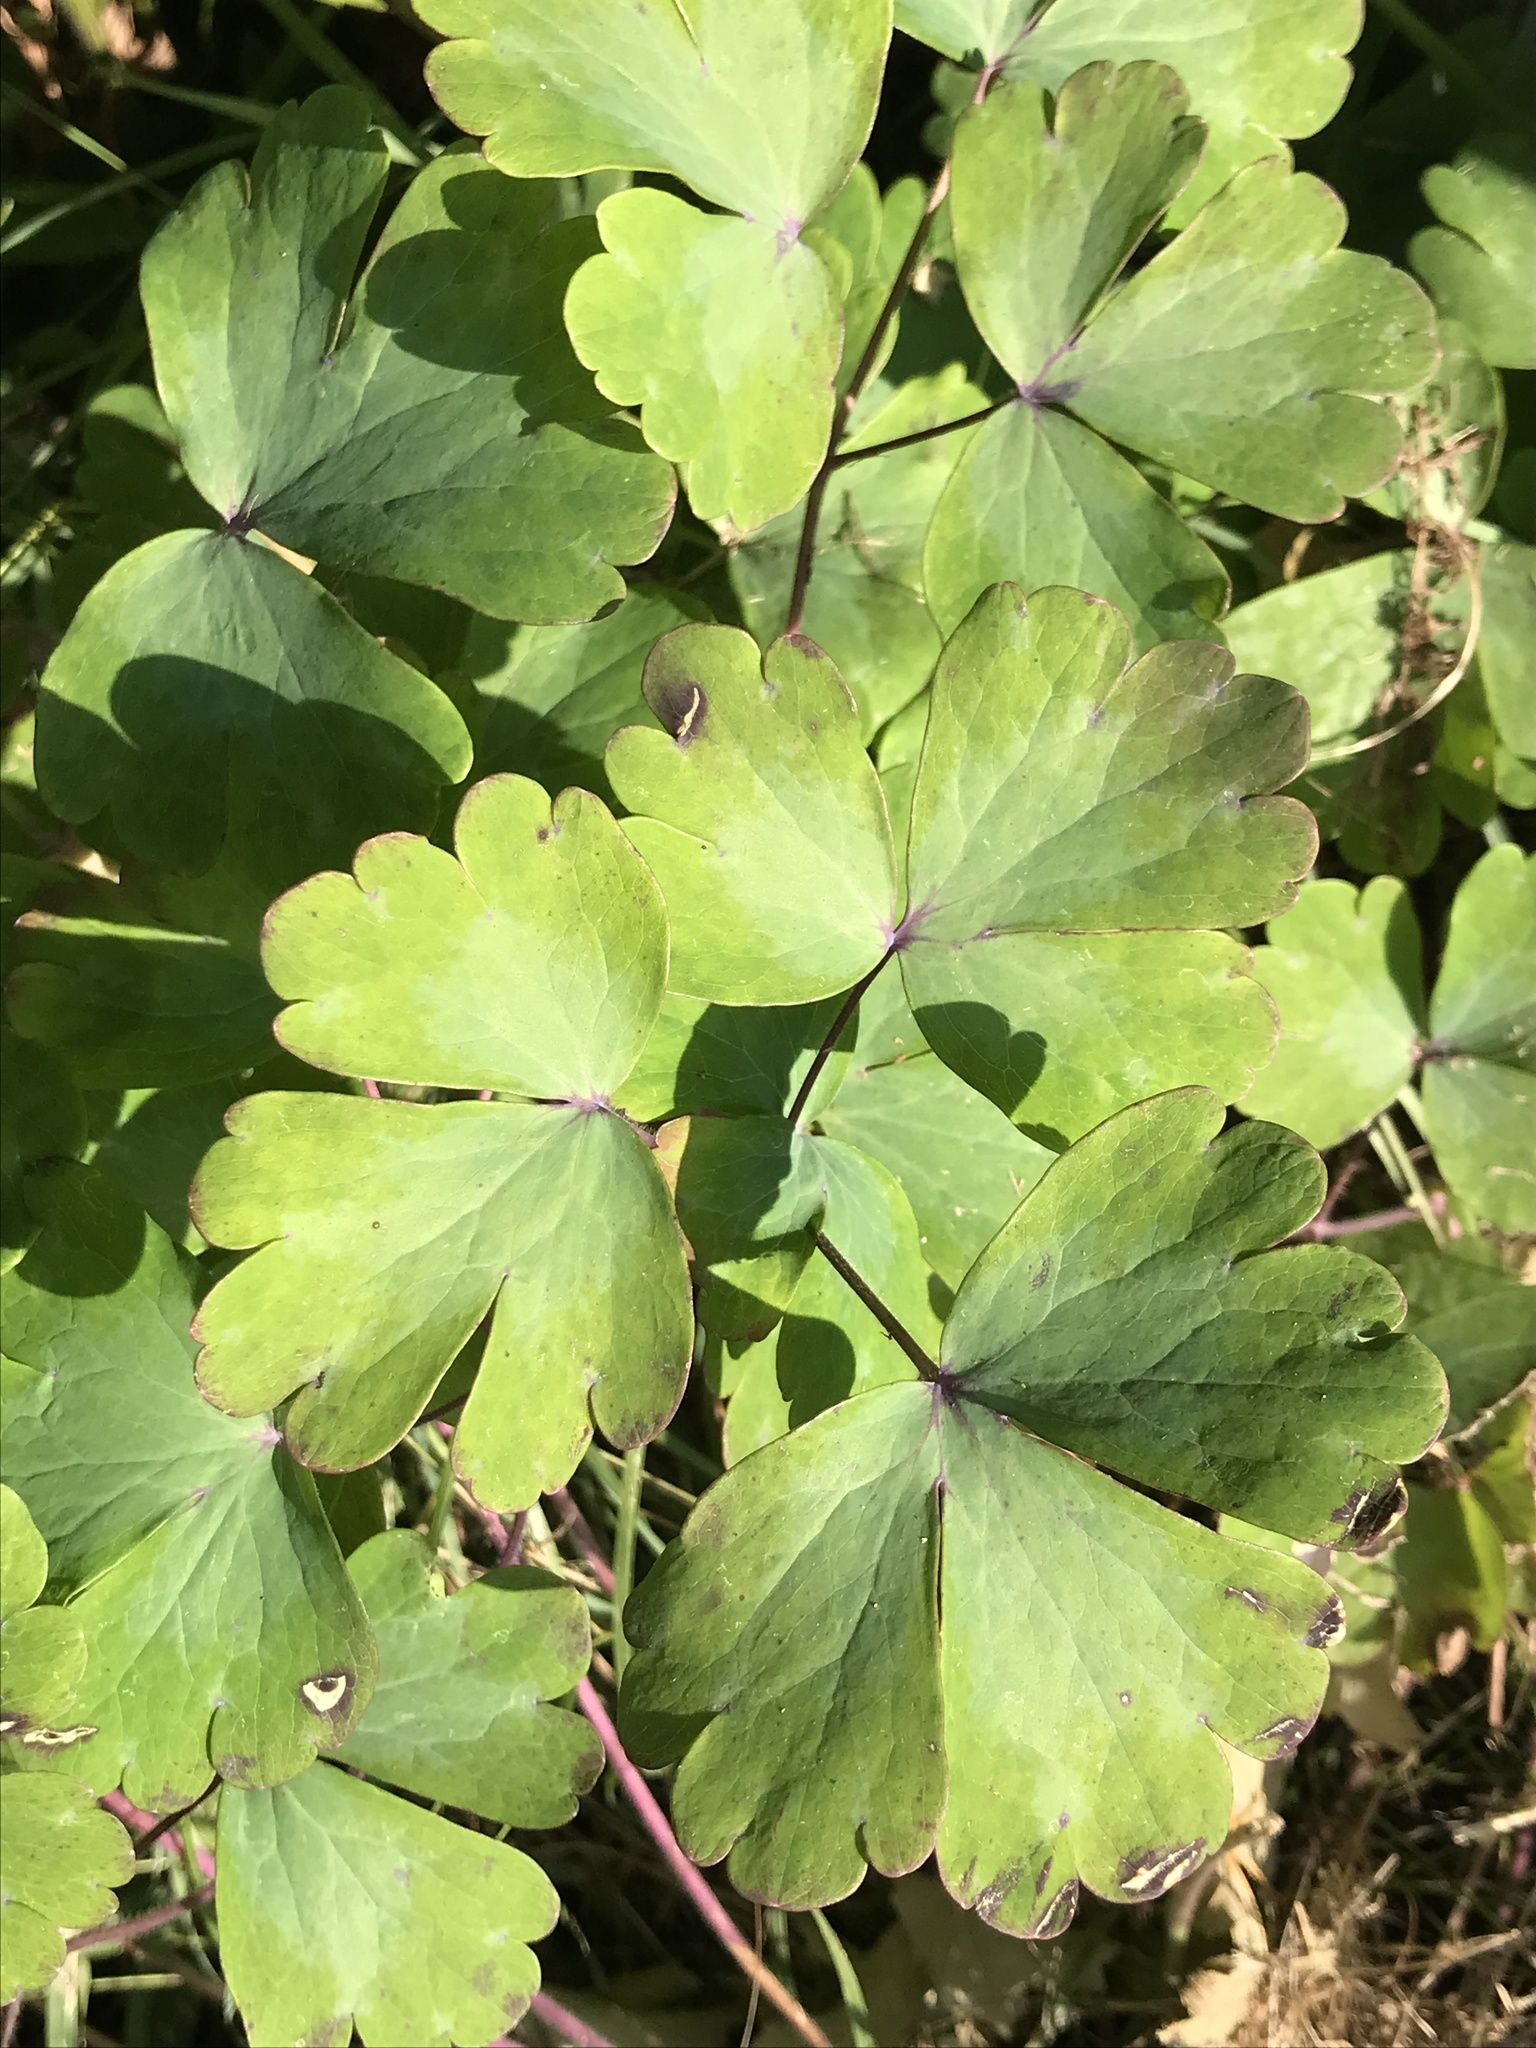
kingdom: Plantae
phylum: Tracheophyta
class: Magnoliopsida
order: Ranunculales
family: Ranunculaceae
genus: Aquilegia
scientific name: Aquilegia vulgaris
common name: Columbine
